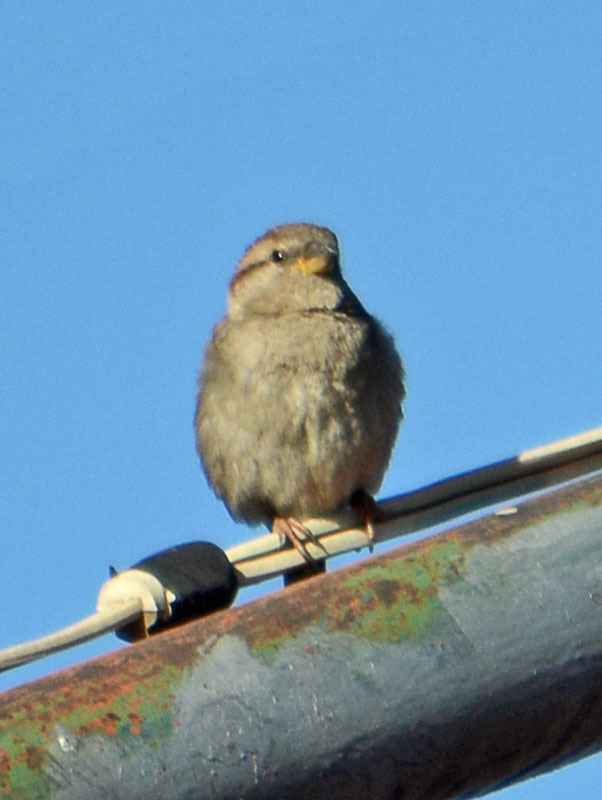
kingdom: Animalia
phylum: Chordata
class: Aves
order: Passeriformes
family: Passeridae
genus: Passer
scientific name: Passer domesticus
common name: House sparrow
